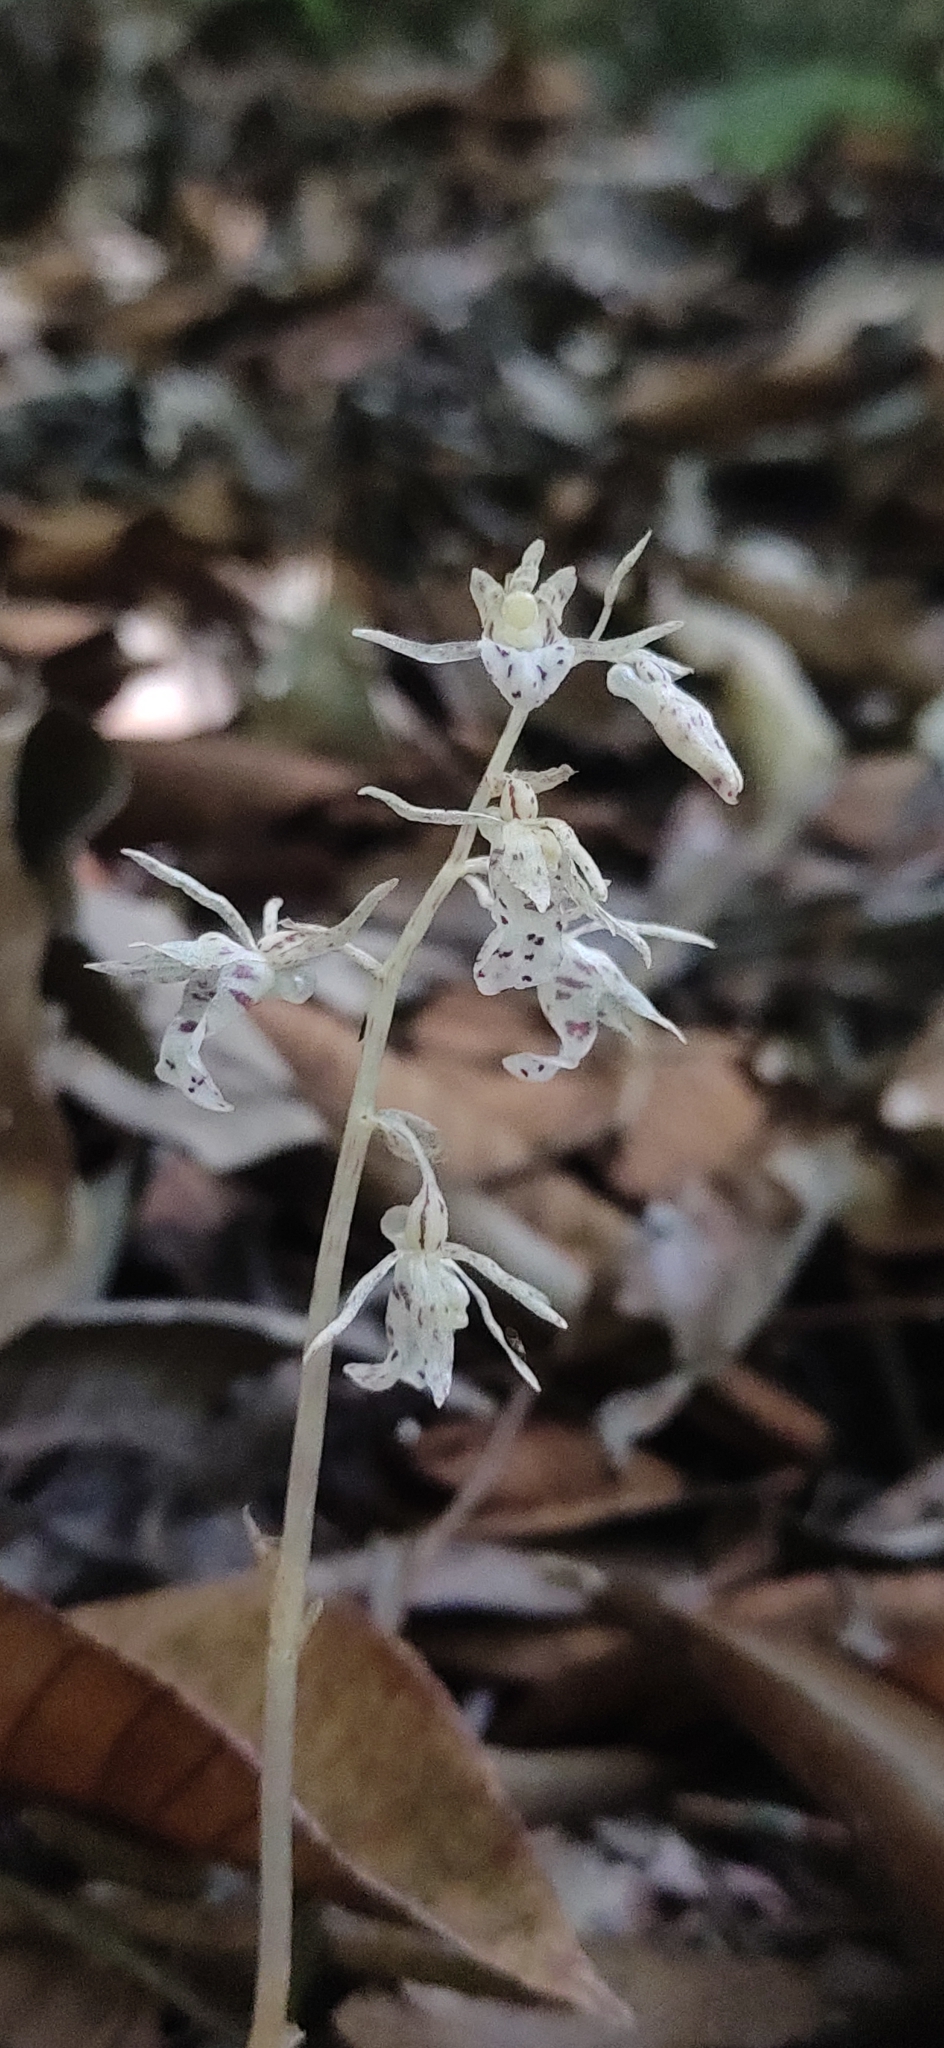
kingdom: Plantae
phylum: Tracheophyta
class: Liliopsida
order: Asparagales
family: Orchidaceae
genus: Epipogium
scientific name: Epipogium roseum
